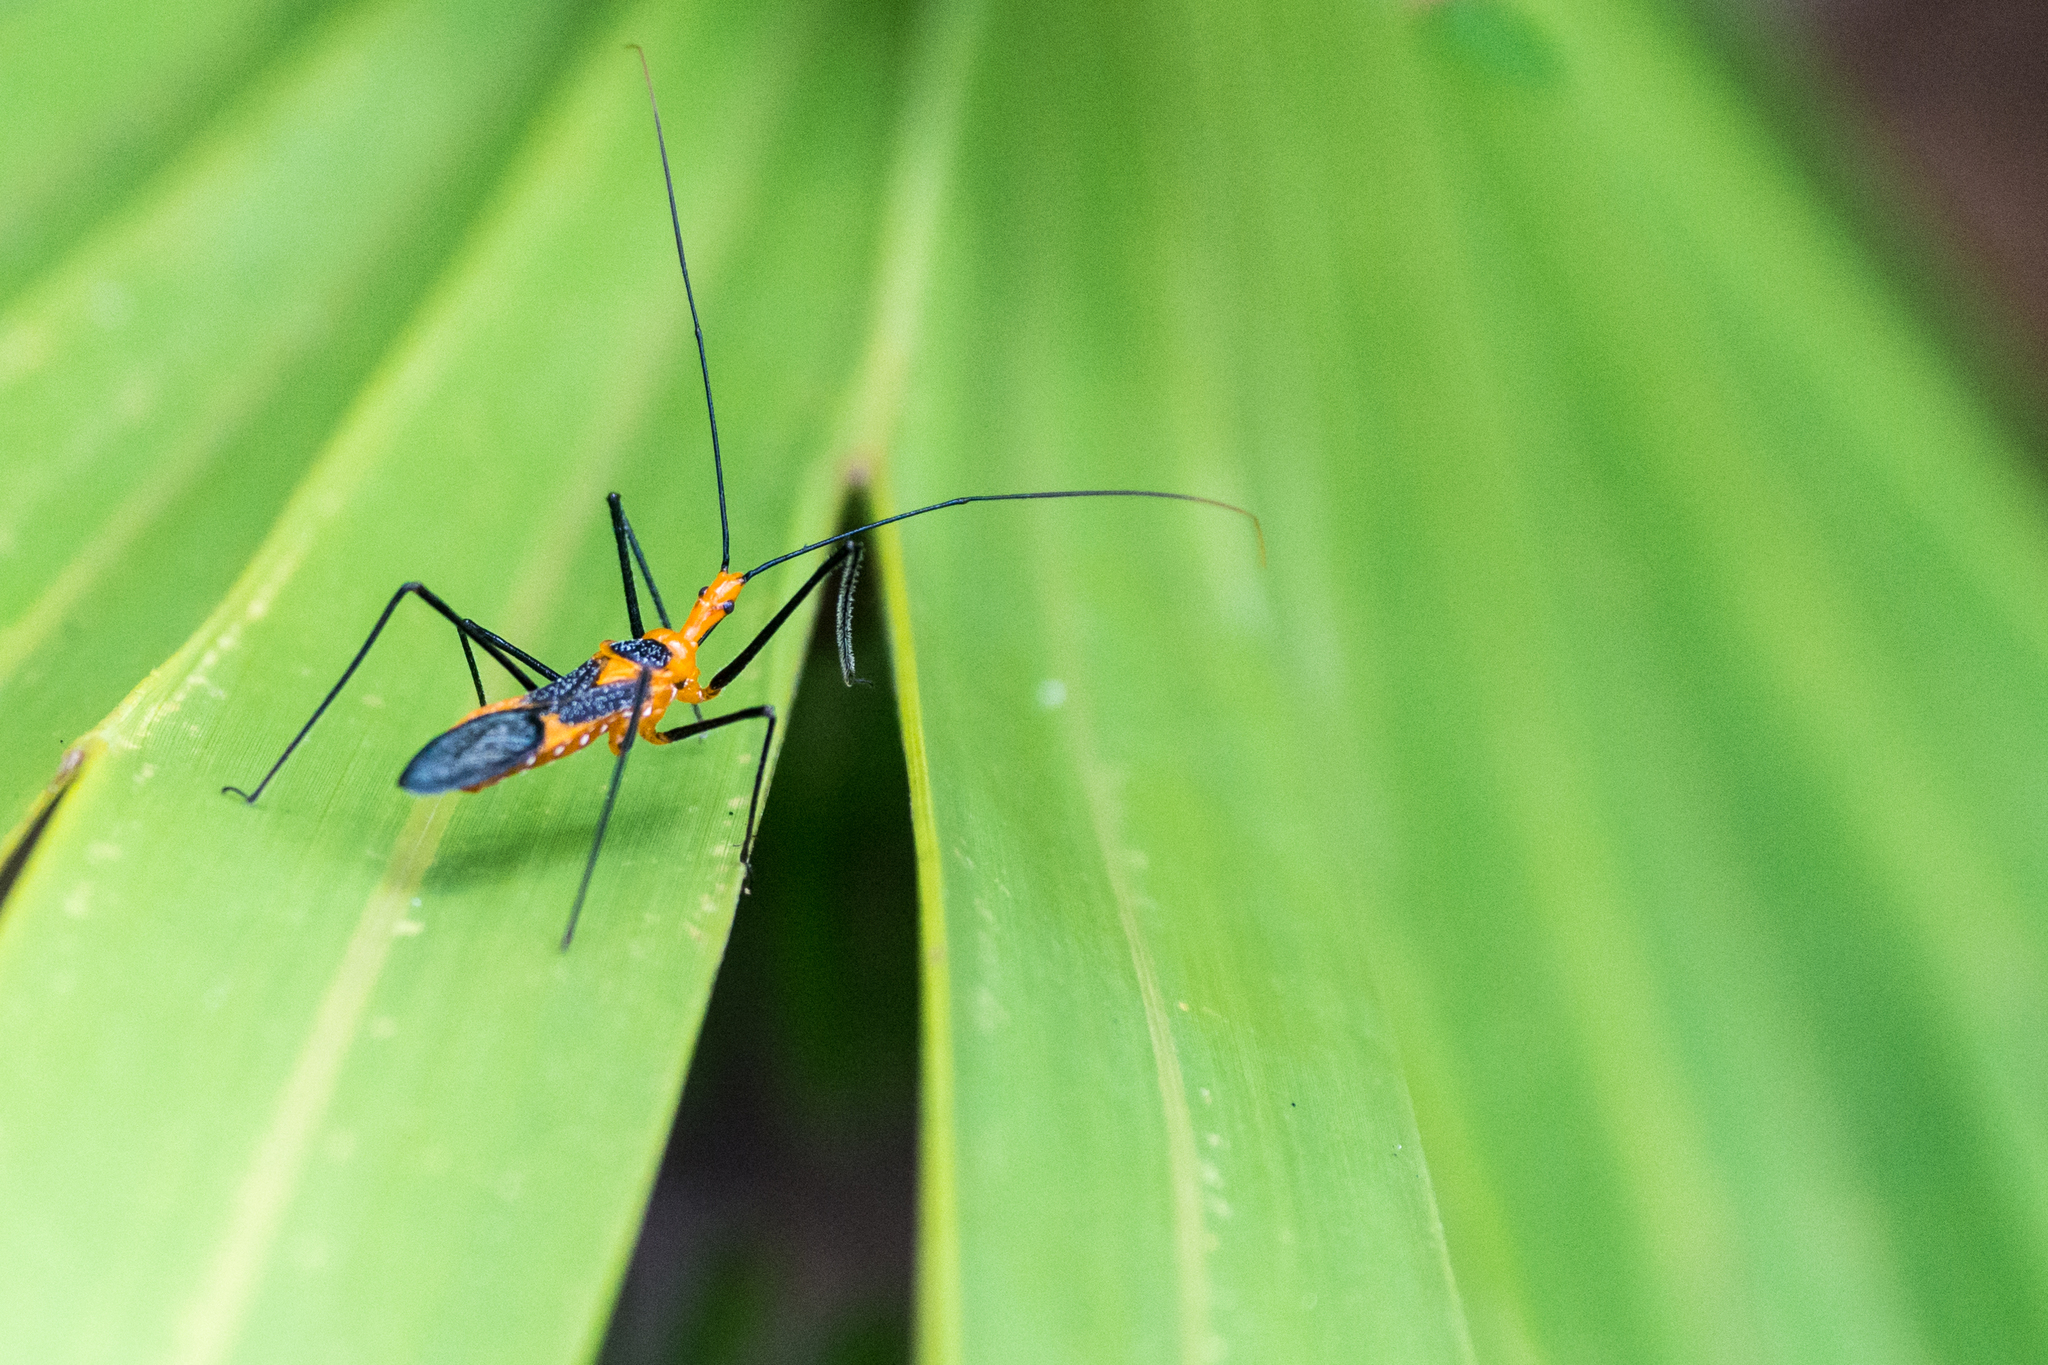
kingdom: Animalia
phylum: Arthropoda
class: Insecta
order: Hemiptera
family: Reduviidae
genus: Zelus
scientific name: Zelus longipes
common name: Milkweed assassin bug
